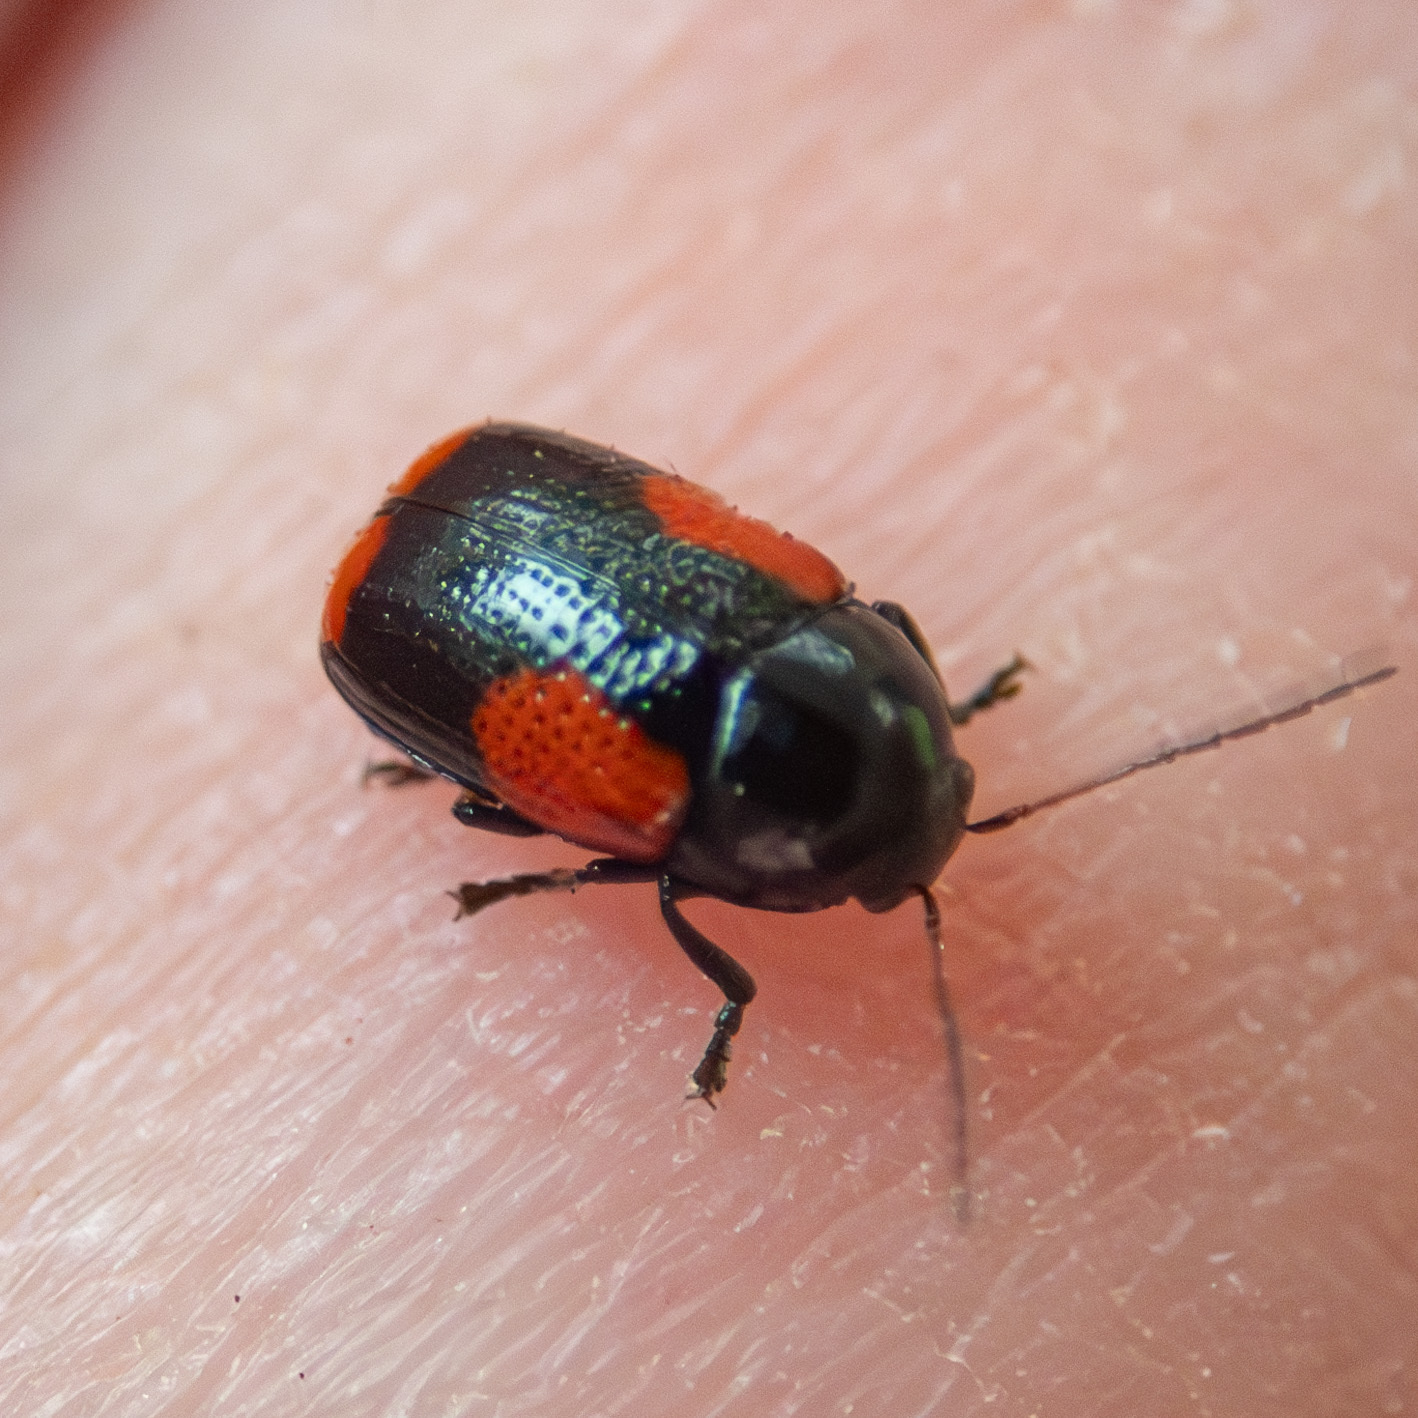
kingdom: Animalia
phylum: Arthropoda
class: Insecta
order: Coleoptera
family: Chrysomelidae
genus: Cryptocephalus
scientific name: Cryptocephalus quadruplex
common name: Black and red sumac leaf beetle
